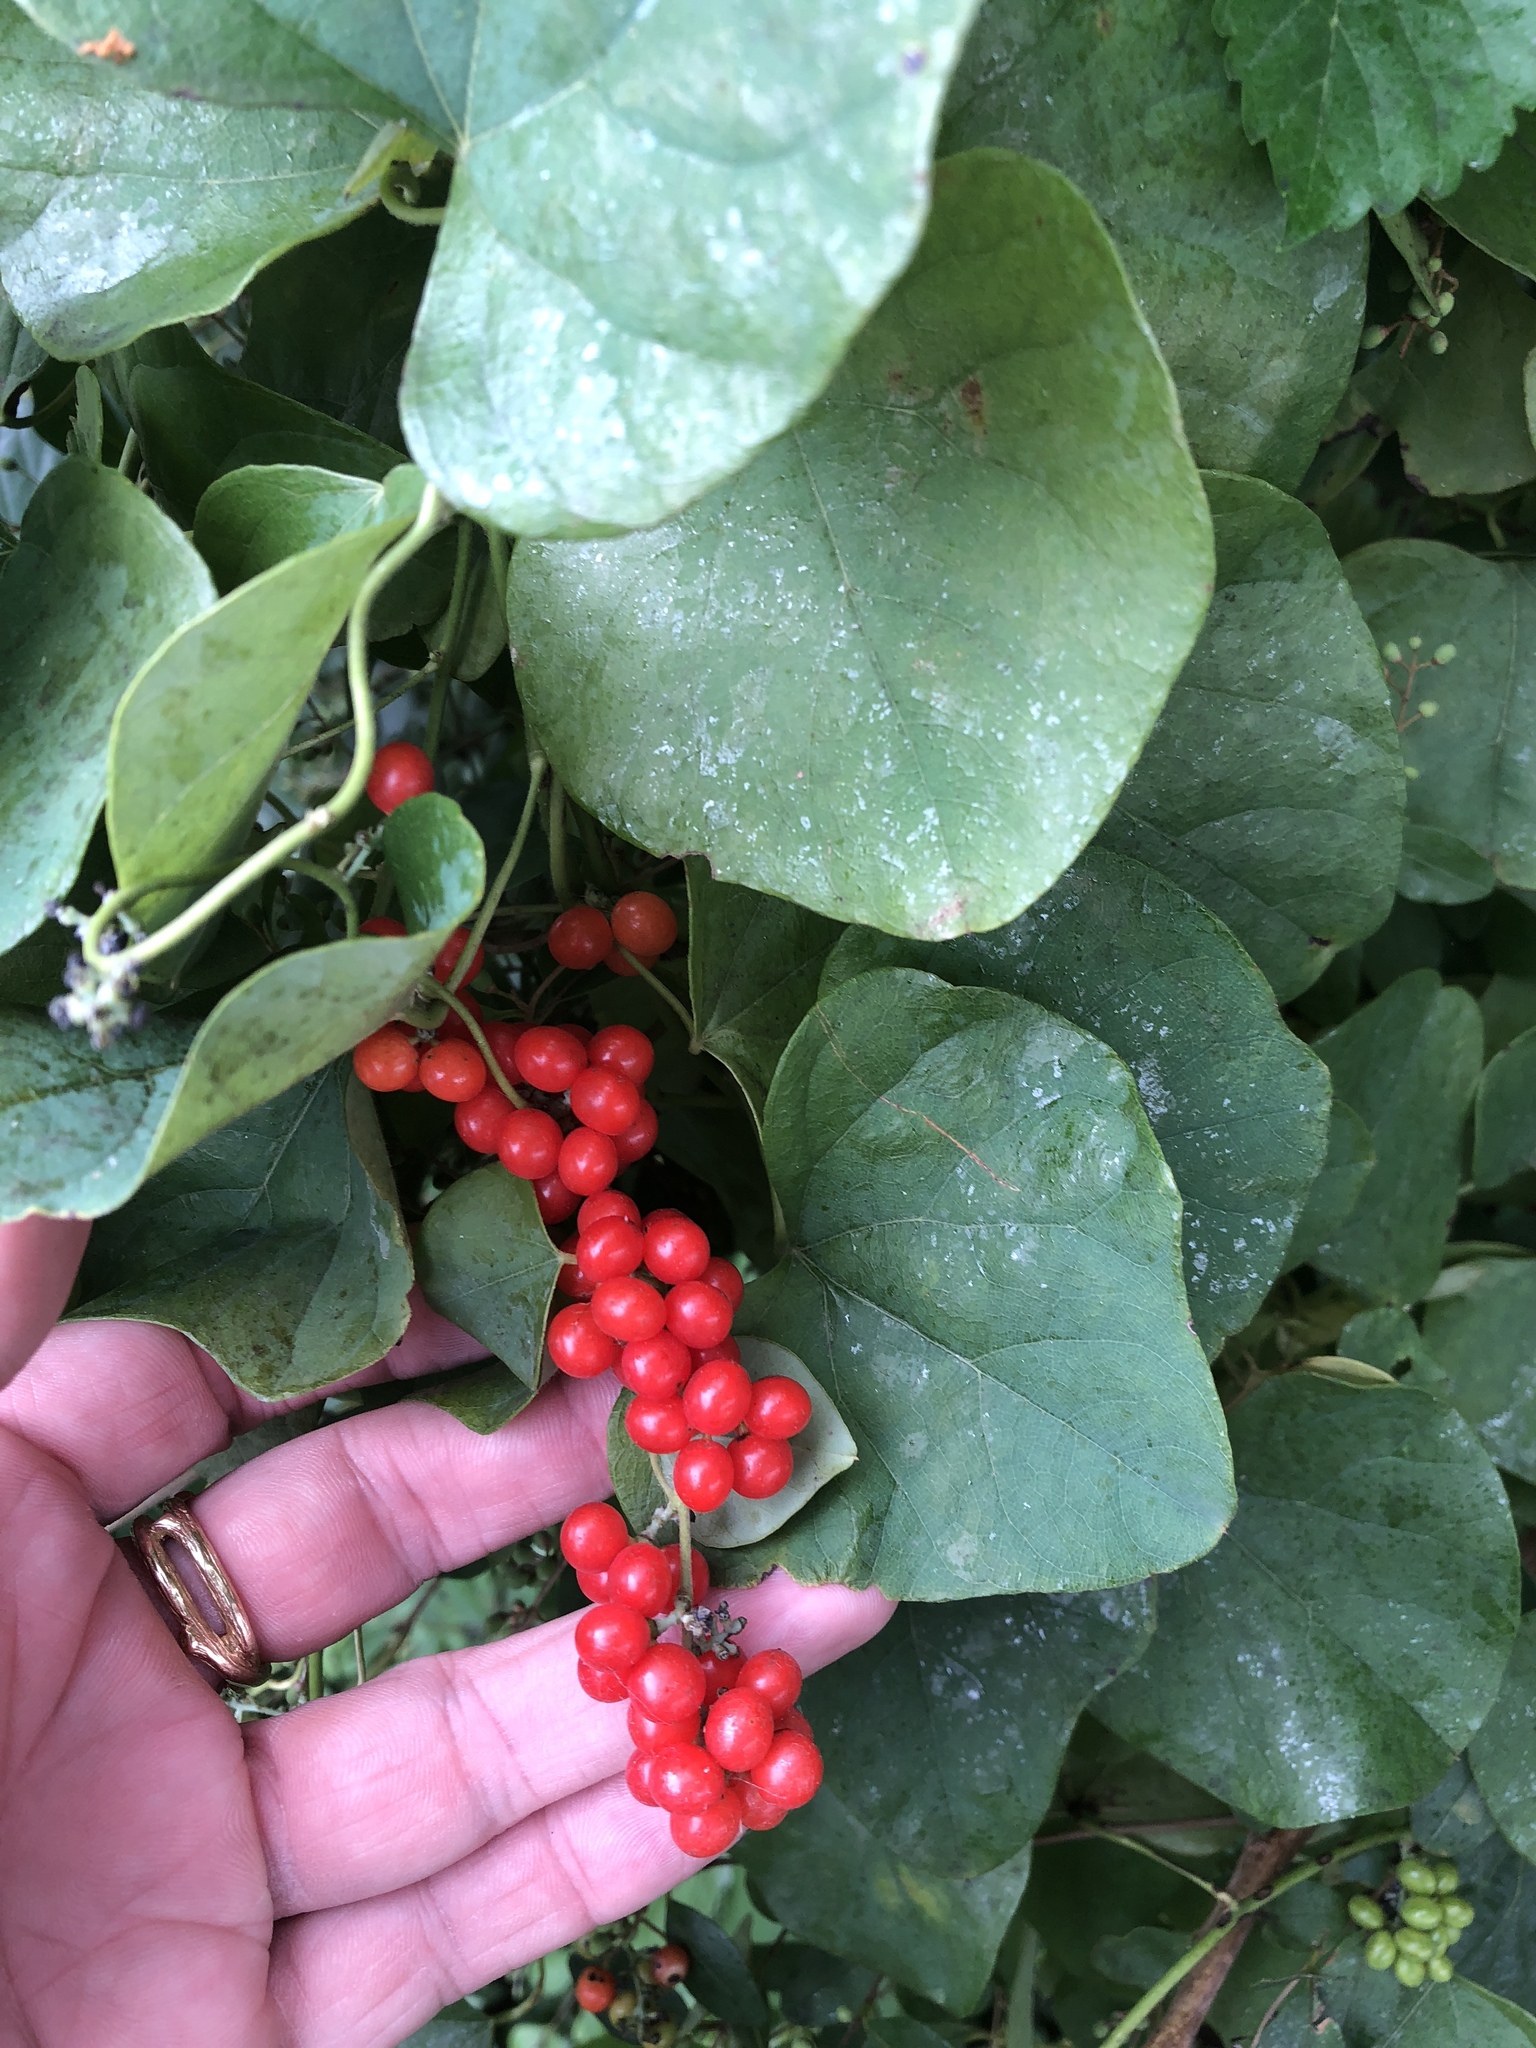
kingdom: Plantae
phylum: Tracheophyta
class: Magnoliopsida
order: Ranunculales
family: Menispermaceae
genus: Cocculus
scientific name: Cocculus carolinus
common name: Carolina moonseed
